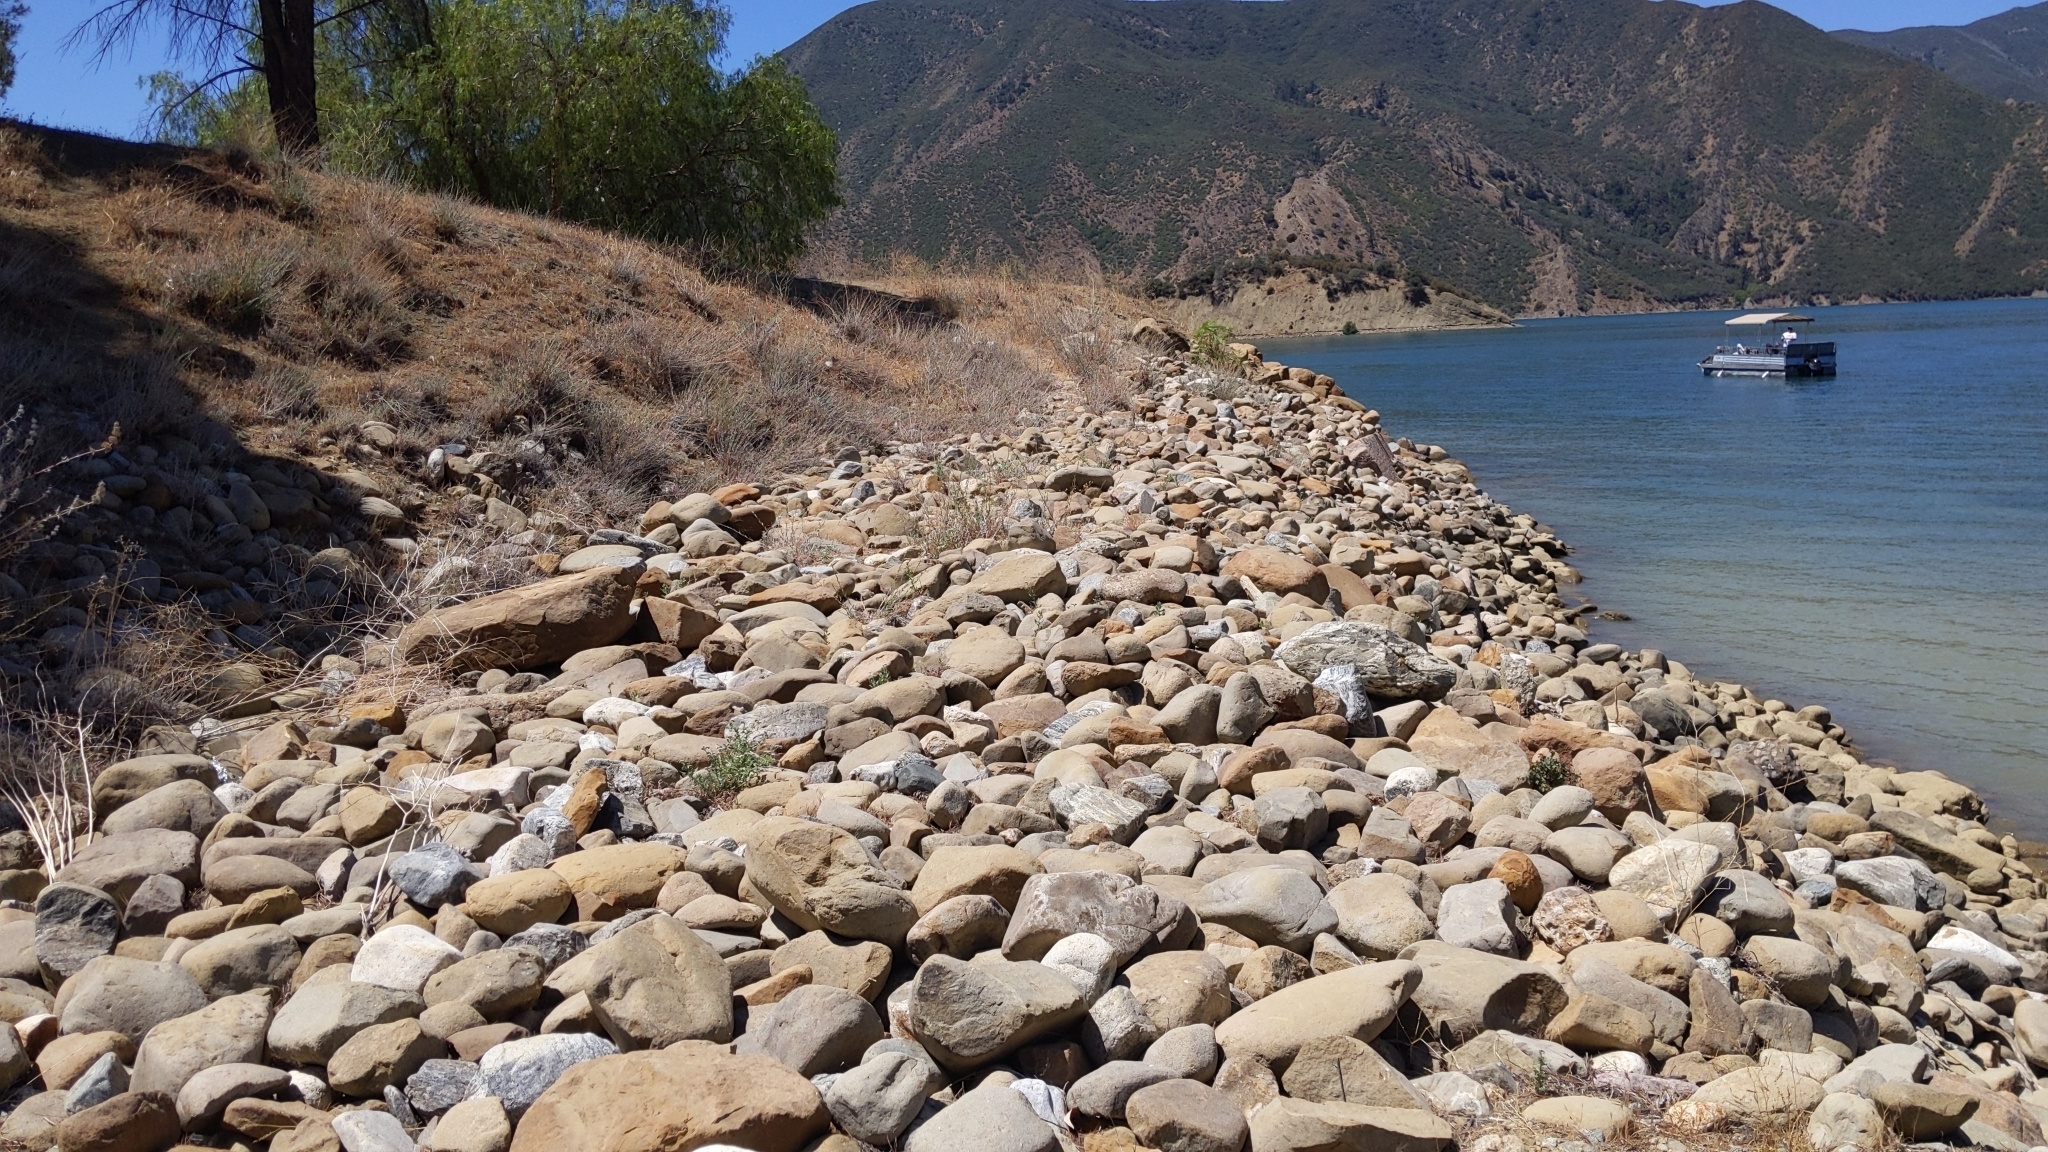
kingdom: Plantae
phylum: Tracheophyta
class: Magnoliopsida
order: Boraginales
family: Heliotropiaceae
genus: Heliotropium
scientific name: Heliotropium curassavicum
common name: Seaside heliotrope
